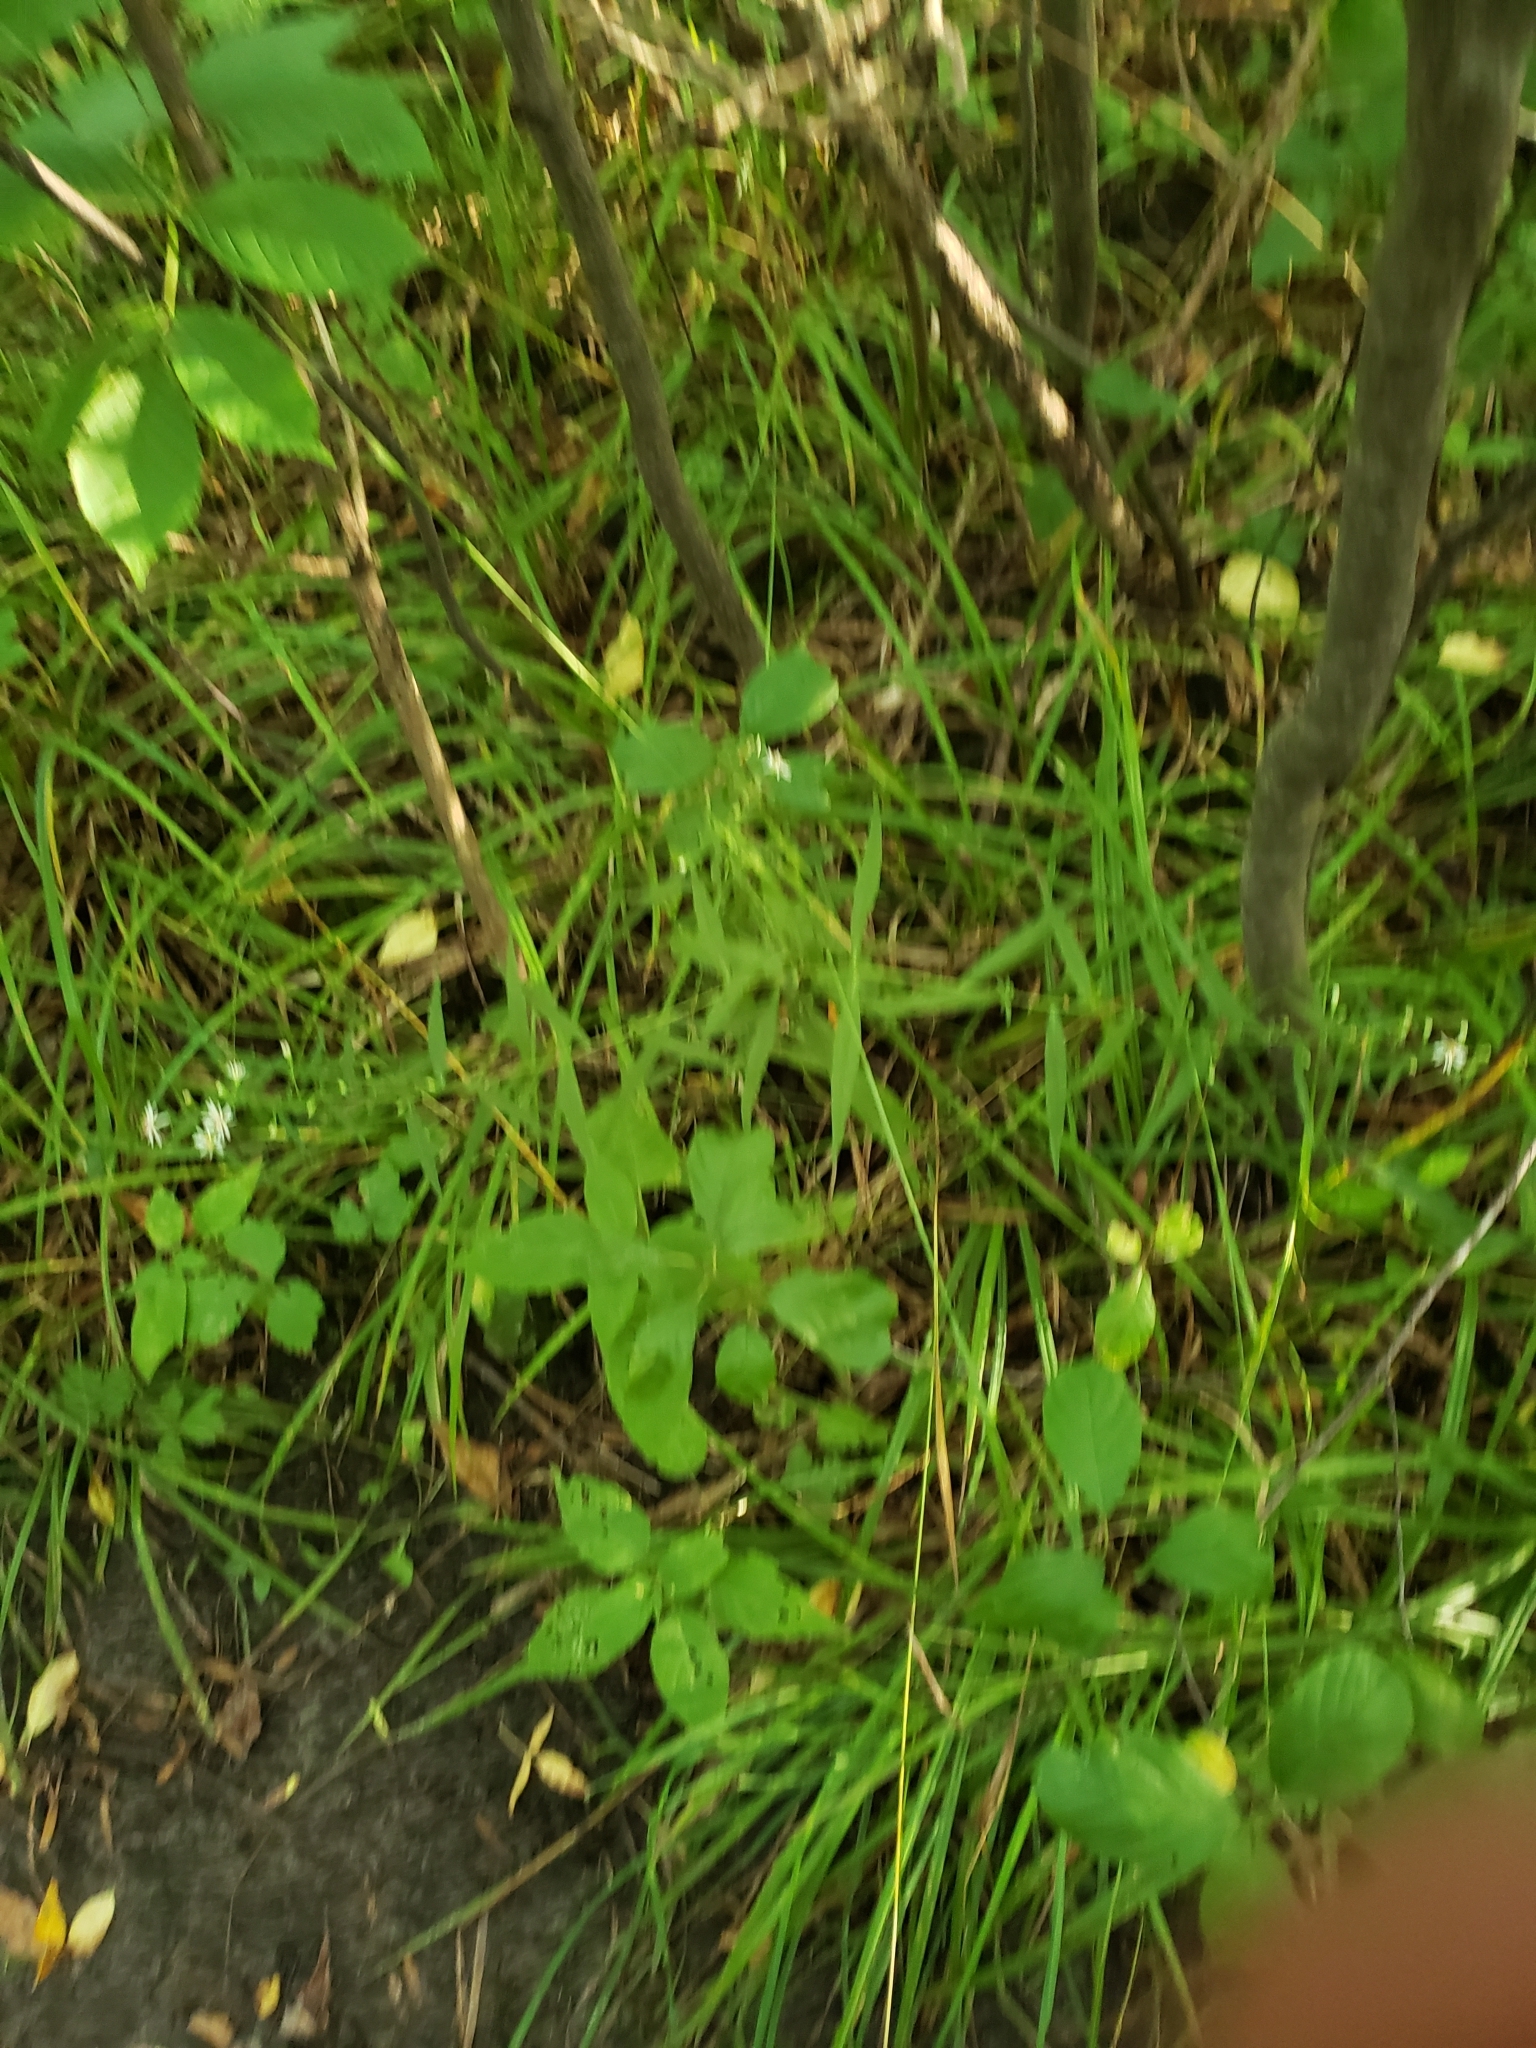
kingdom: Plantae
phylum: Tracheophyta
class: Magnoliopsida
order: Asterales
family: Asteraceae
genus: Symphyotrichum
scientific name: Symphyotrichum lateriflorum
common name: Calico aster
